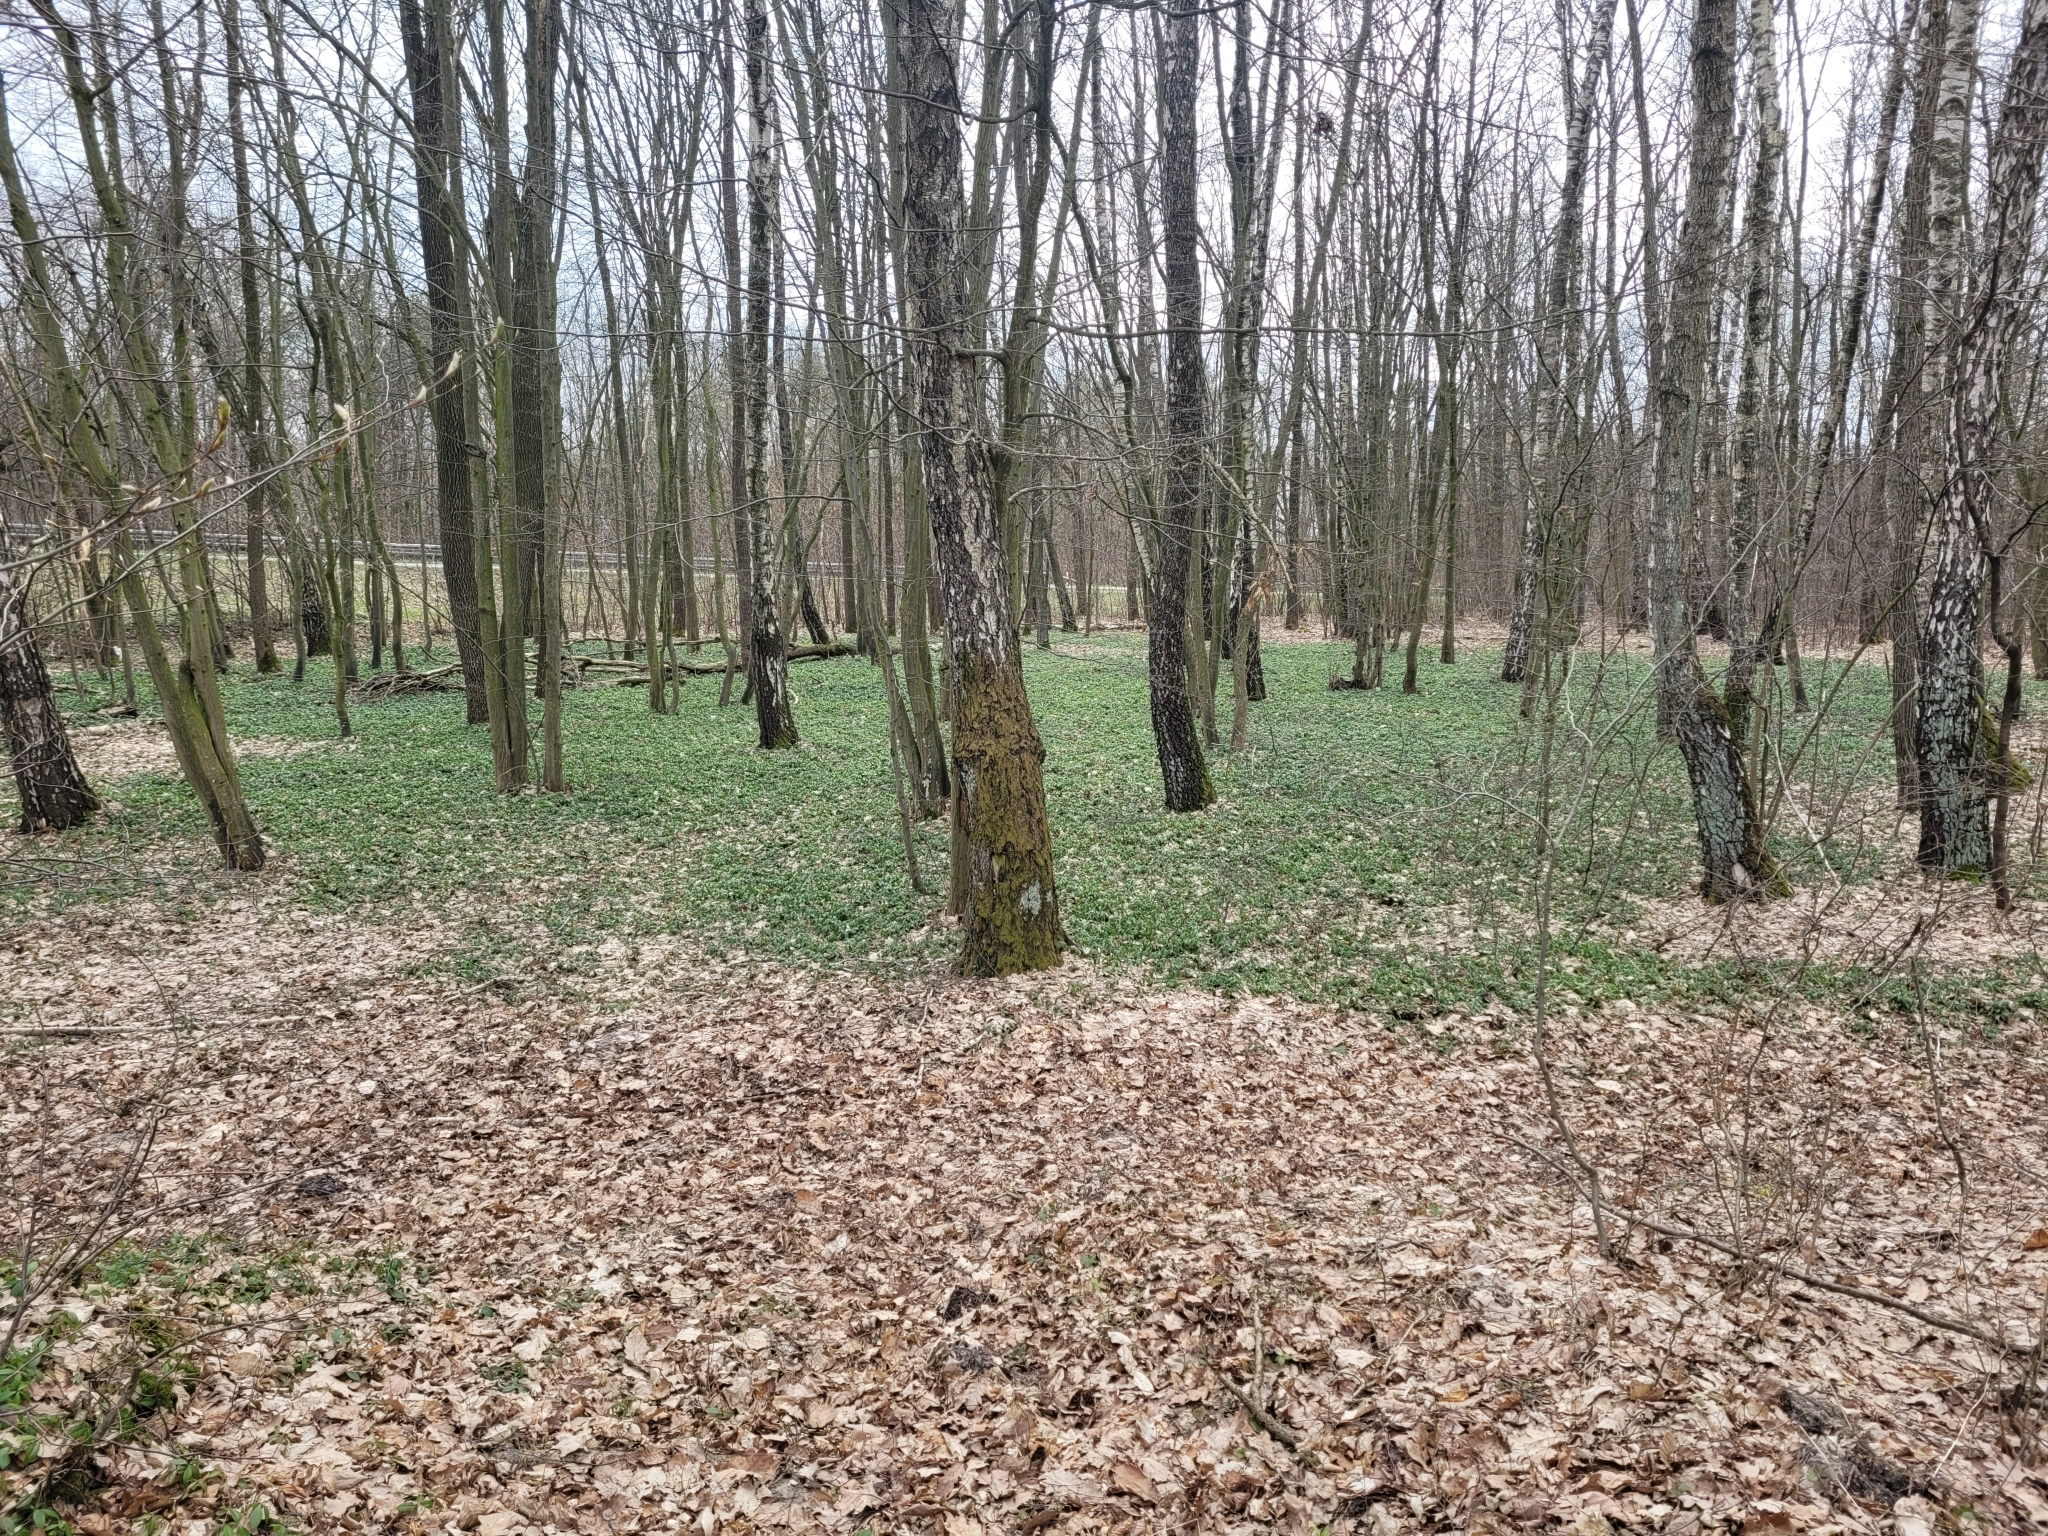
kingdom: Plantae
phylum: Tracheophyta
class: Magnoliopsida
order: Gentianales
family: Apocynaceae
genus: Vinca
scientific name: Vinca minor
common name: Lesser periwinkle
